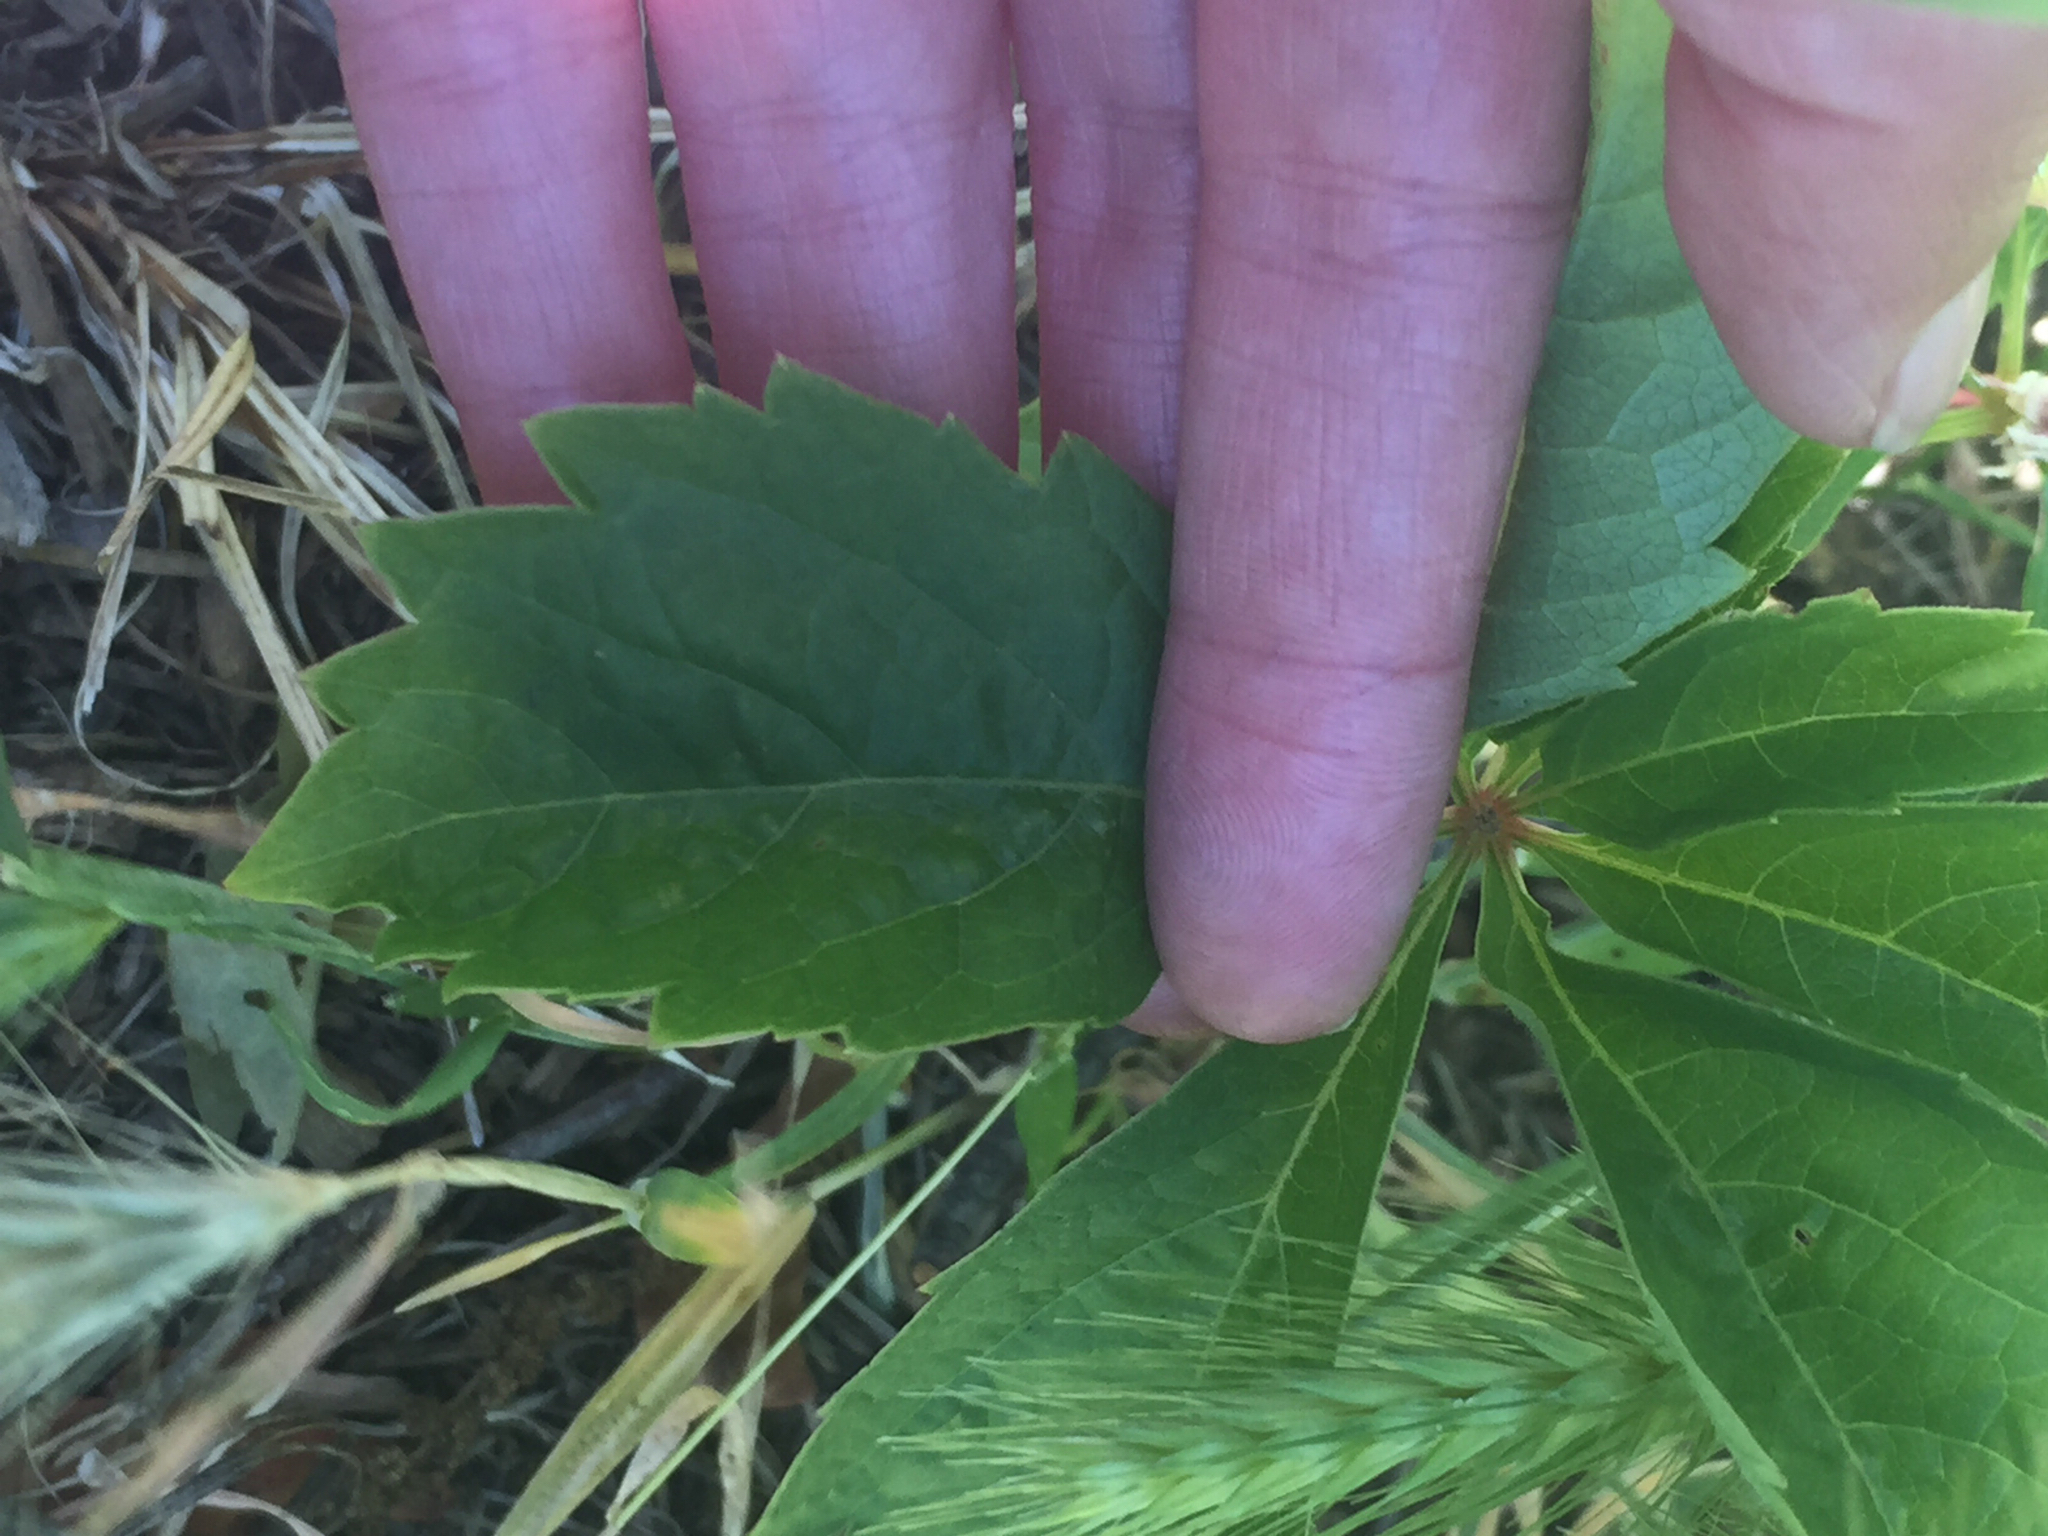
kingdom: Plantae
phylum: Tracheophyta
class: Magnoliopsida
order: Vitales
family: Vitaceae
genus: Parthenocissus
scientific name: Parthenocissus quinquefolia
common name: Virginia-creeper
